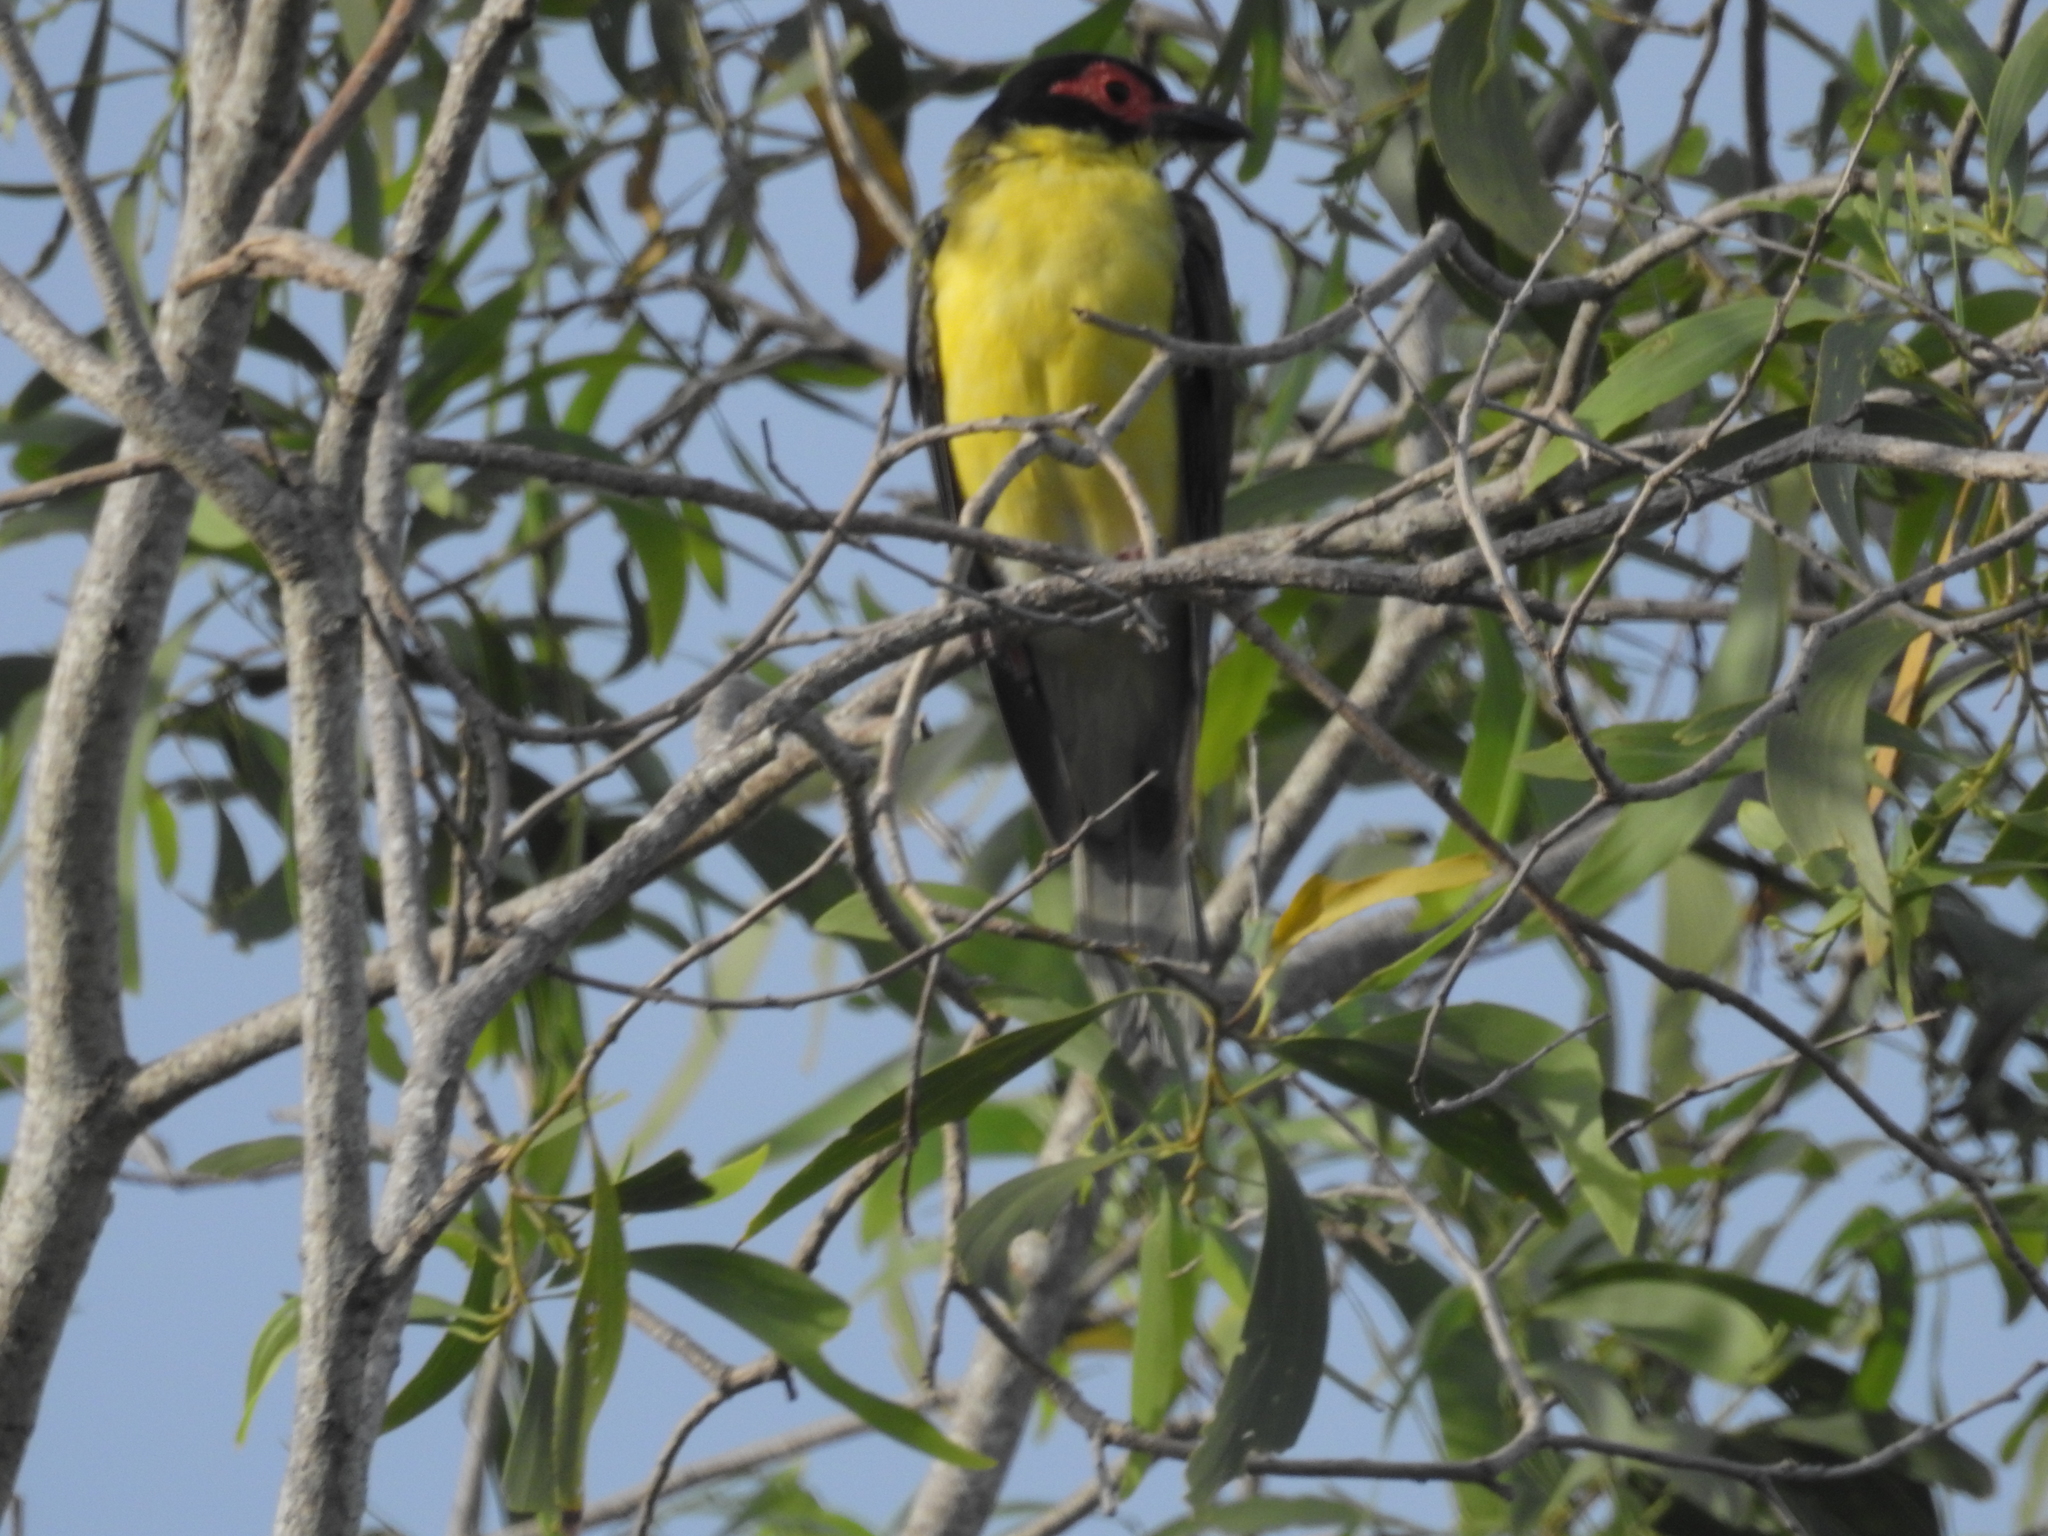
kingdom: Animalia
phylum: Chordata
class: Aves
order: Passeriformes
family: Oriolidae
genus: Sphecotheres
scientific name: Sphecotheres vieilloti
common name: Australasian figbird
